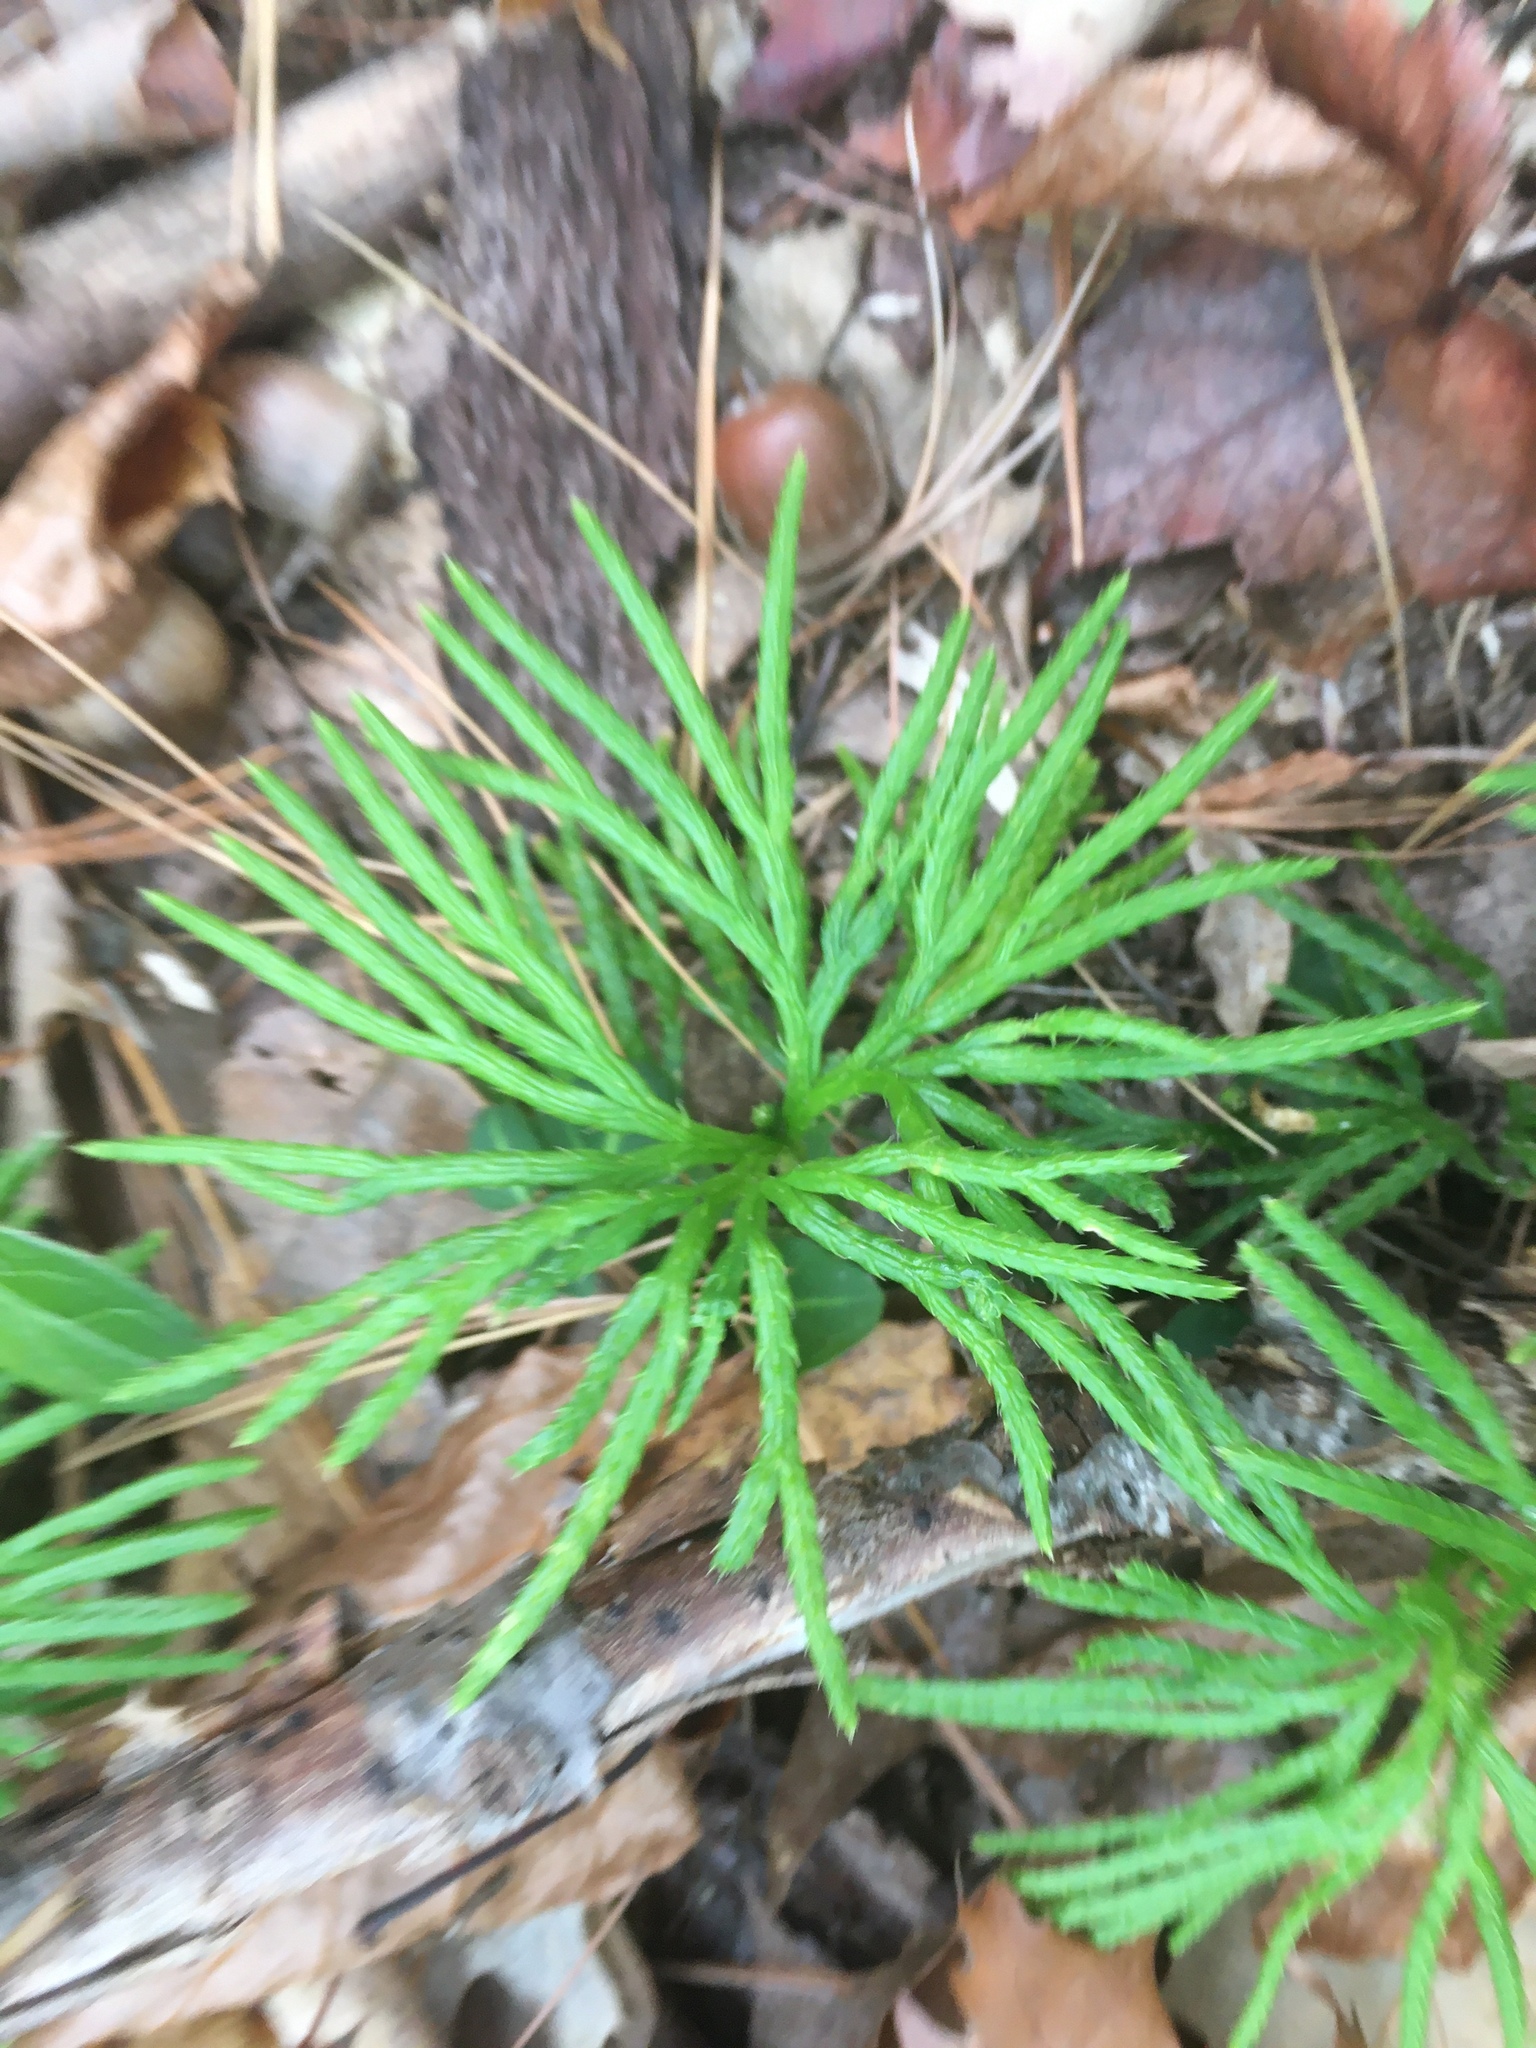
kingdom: Plantae
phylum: Tracheophyta
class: Lycopodiopsida
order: Lycopodiales
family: Lycopodiaceae
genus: Diphasiastrum
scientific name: Diphasiastrum digitatum
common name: Southern running-pine
